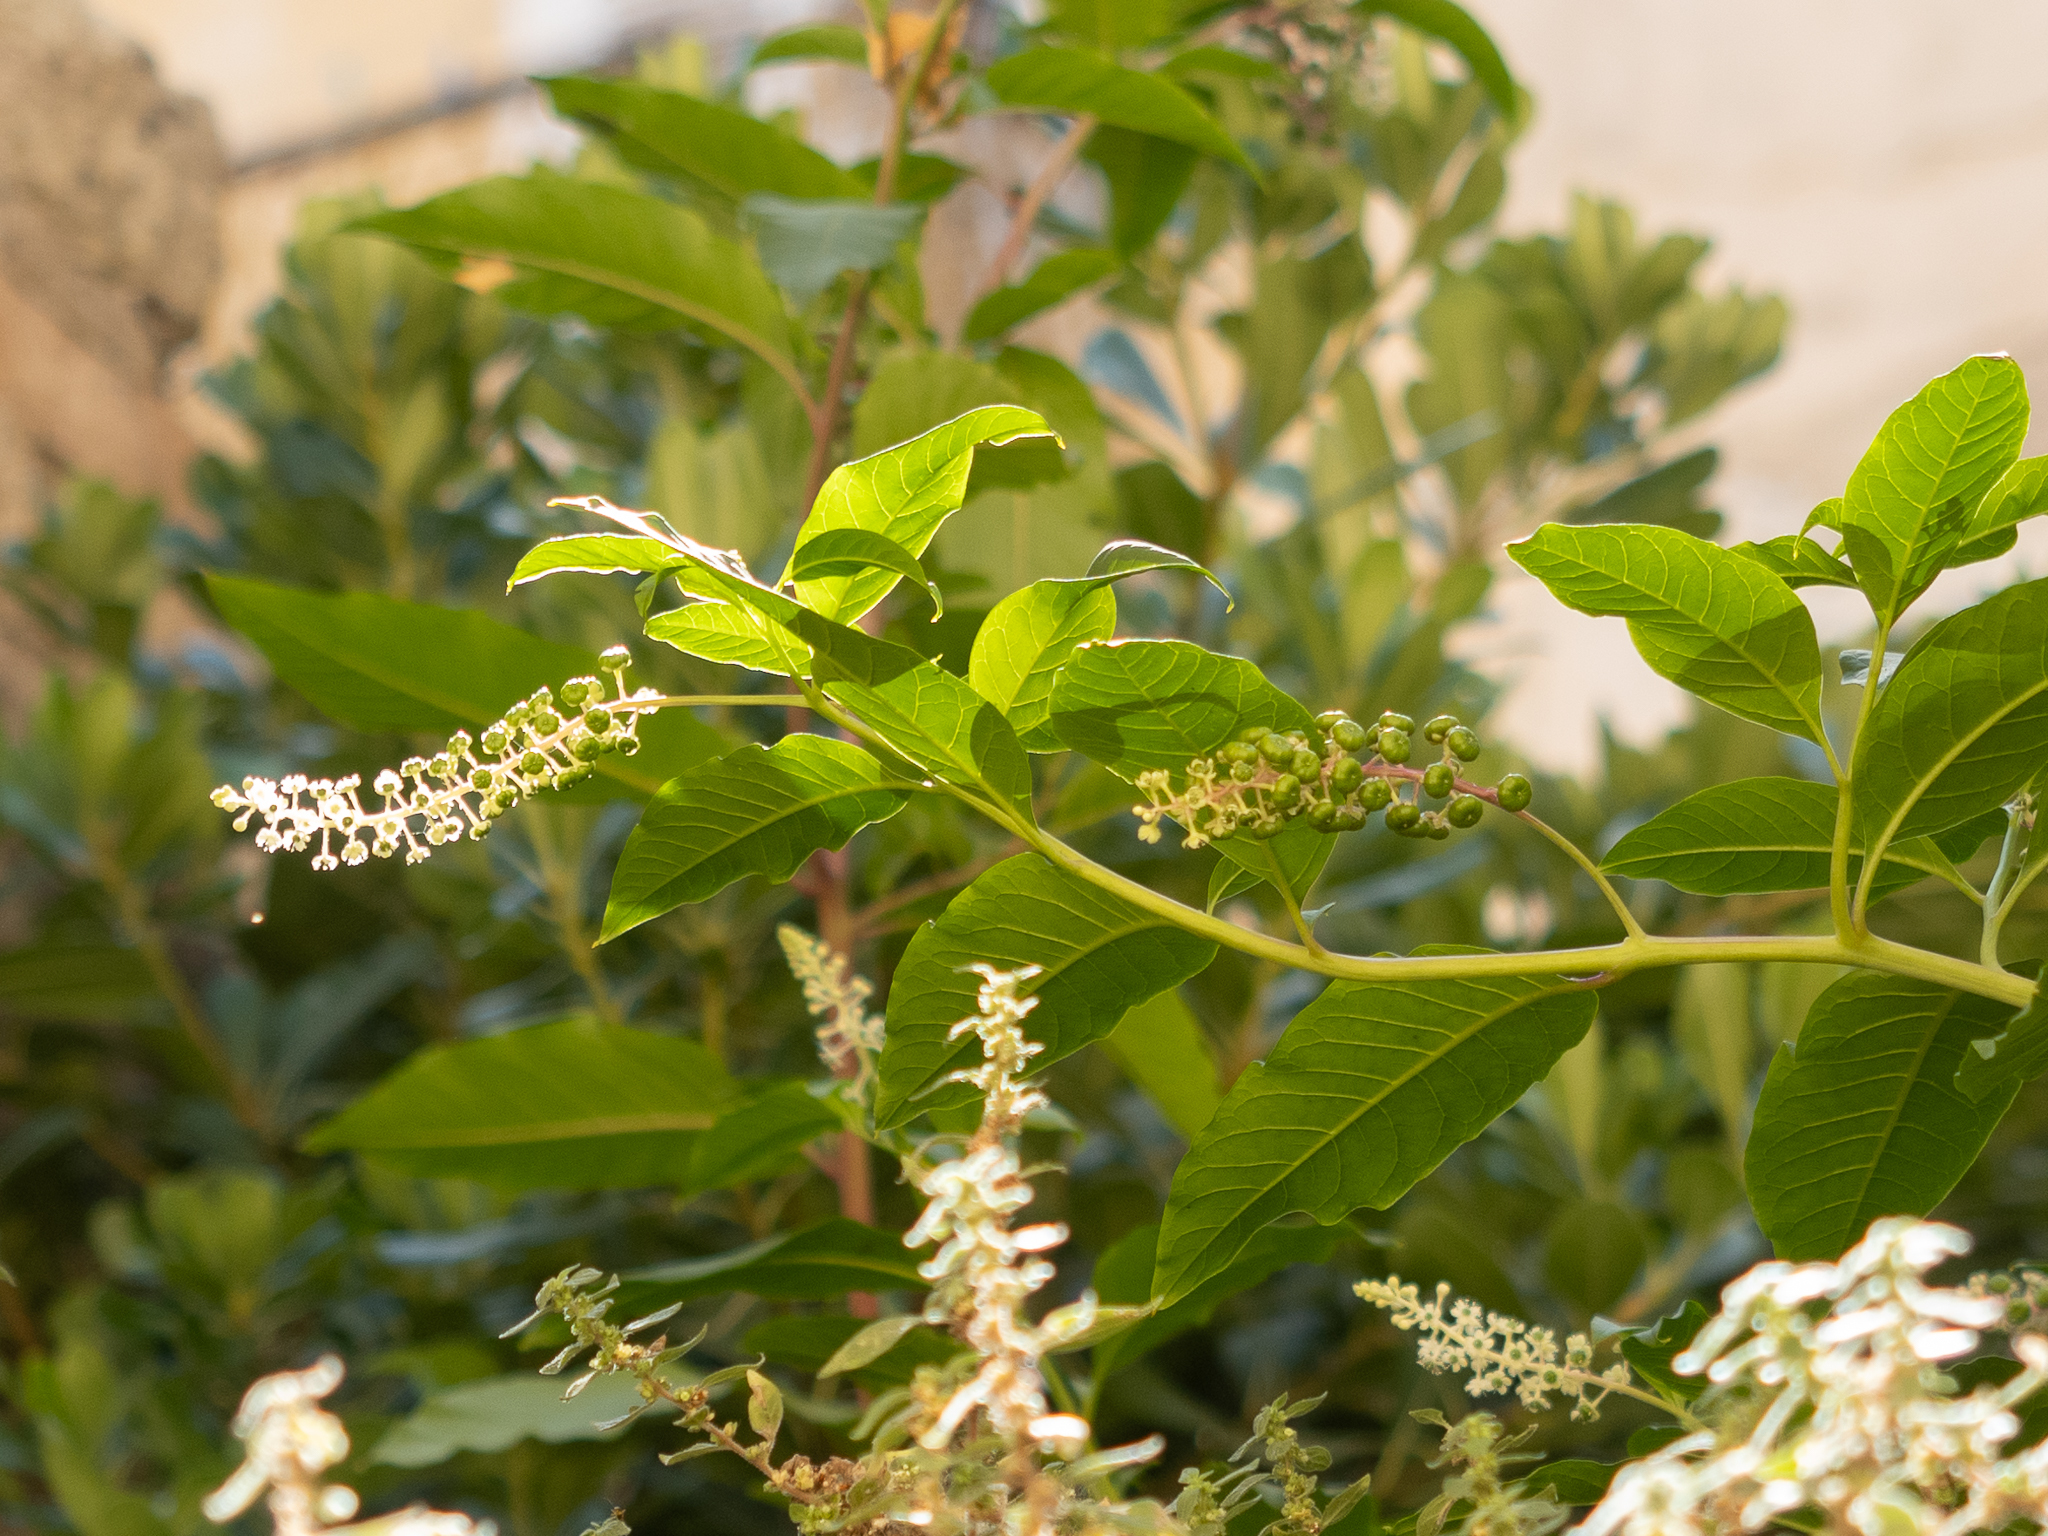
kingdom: Plantae
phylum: Tracheophyta
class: Magnoliopsida
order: Caryophyllales
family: Phytolaccaceae
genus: Phytolacca
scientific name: Phytolacca americana
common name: American pokeweed
